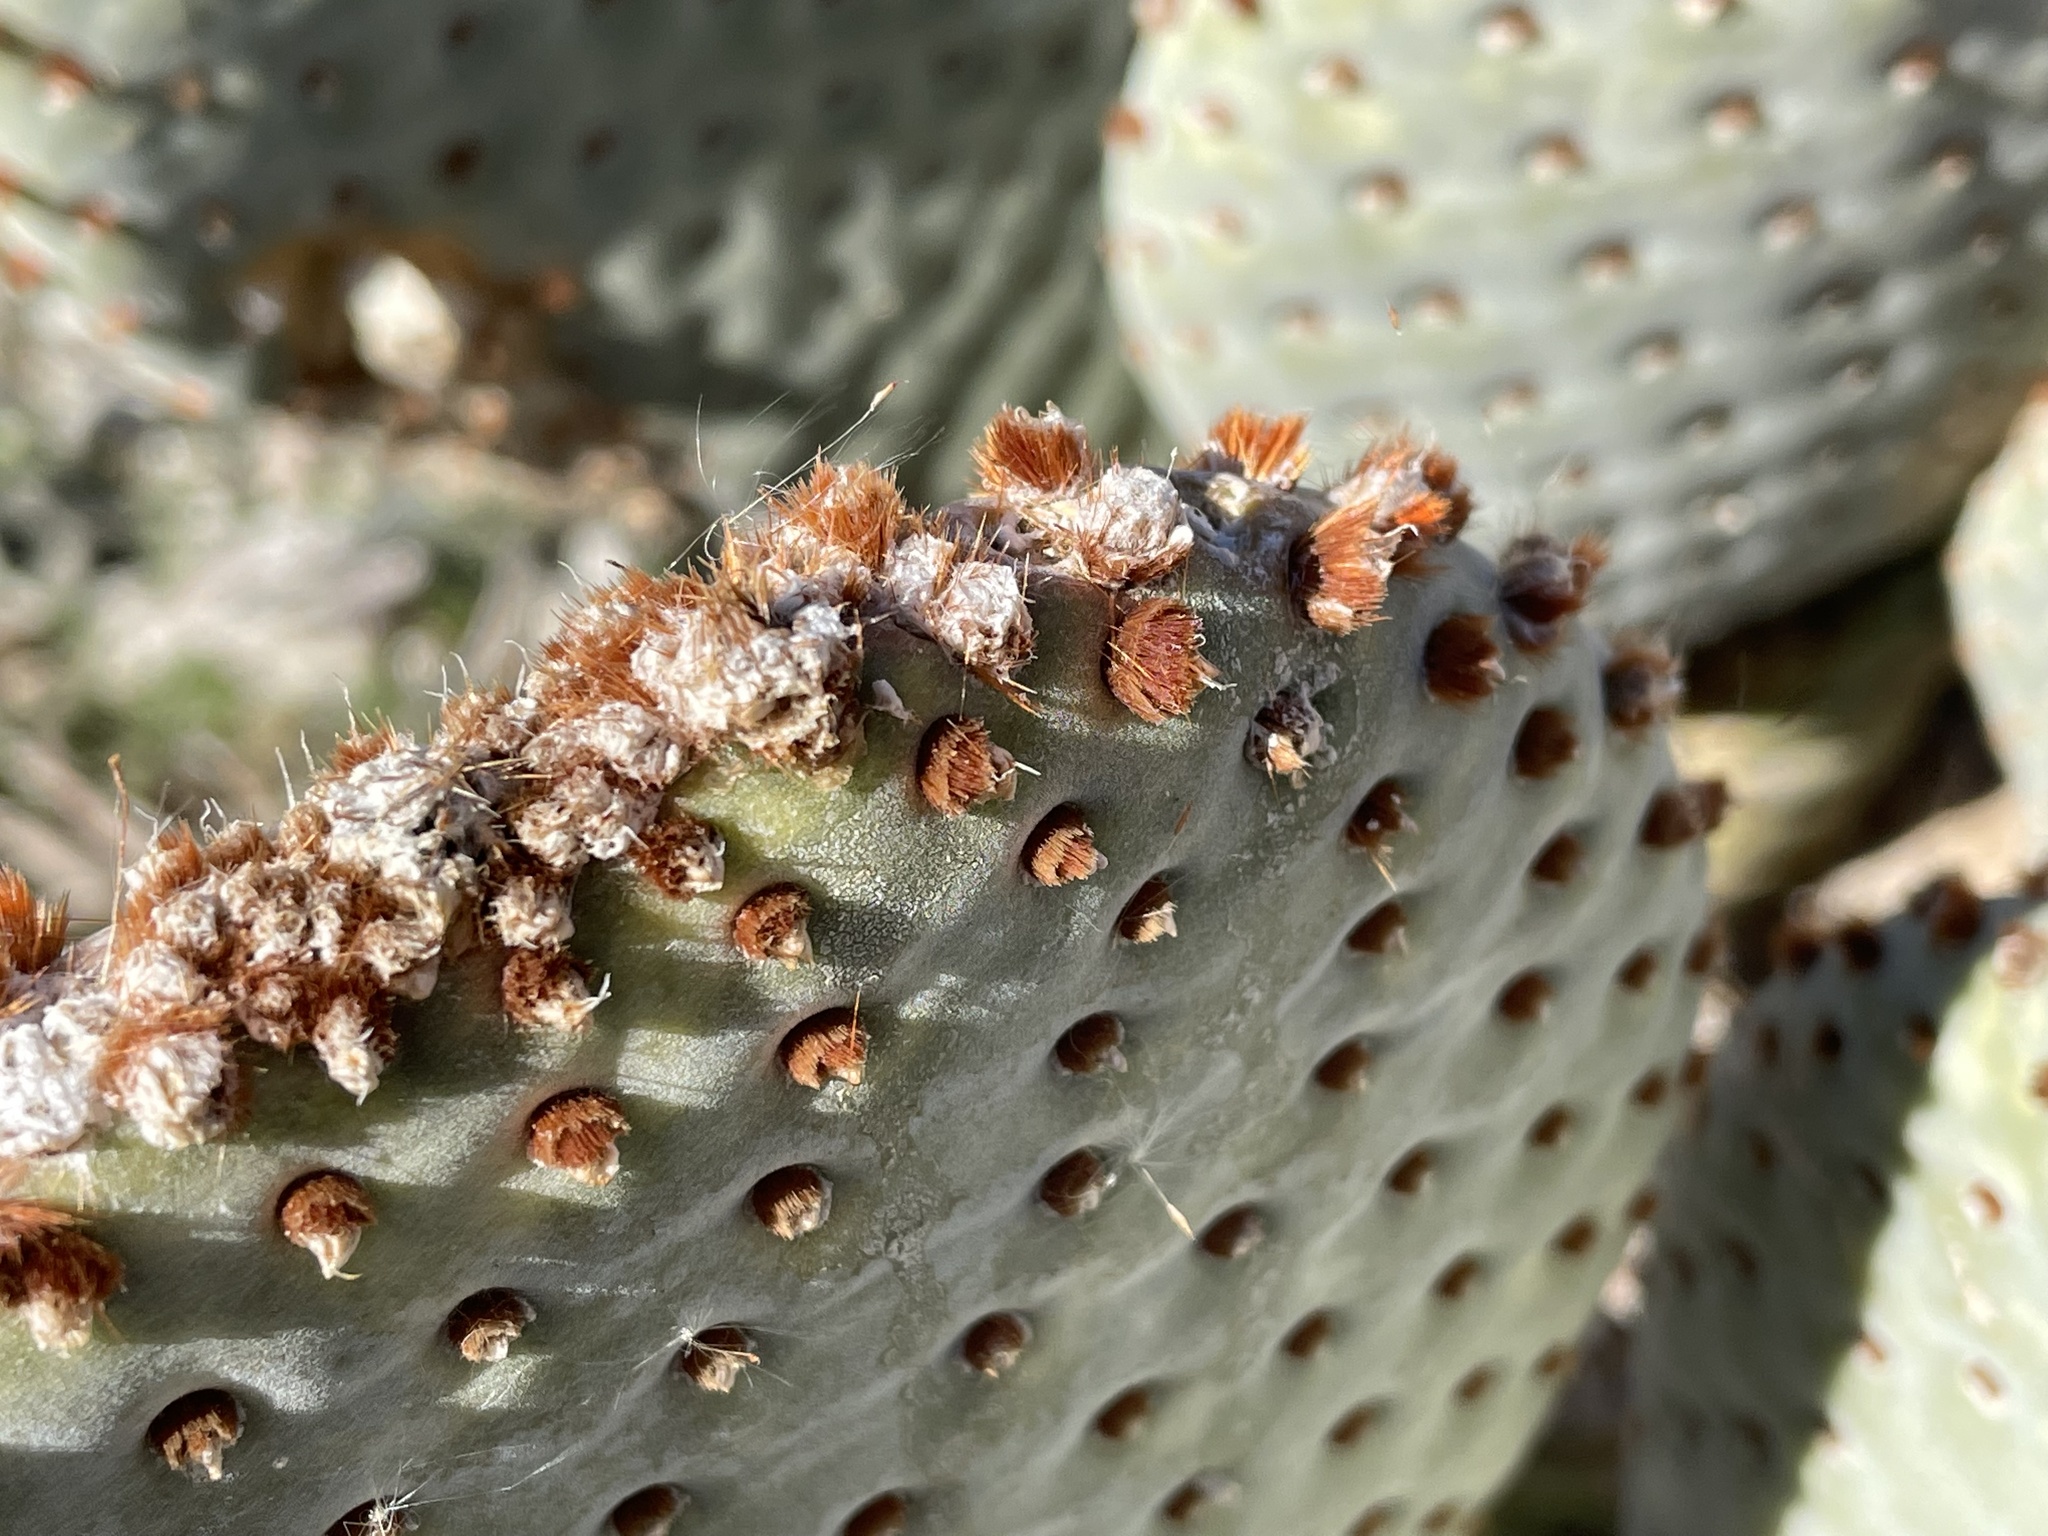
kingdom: Plantae
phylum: Tracheophyta
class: Magnoliopsida
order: Caryophyllales
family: Cactaceae
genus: Opuntia
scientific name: Opuntia basilaris
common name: Beavertail prickly-pear
